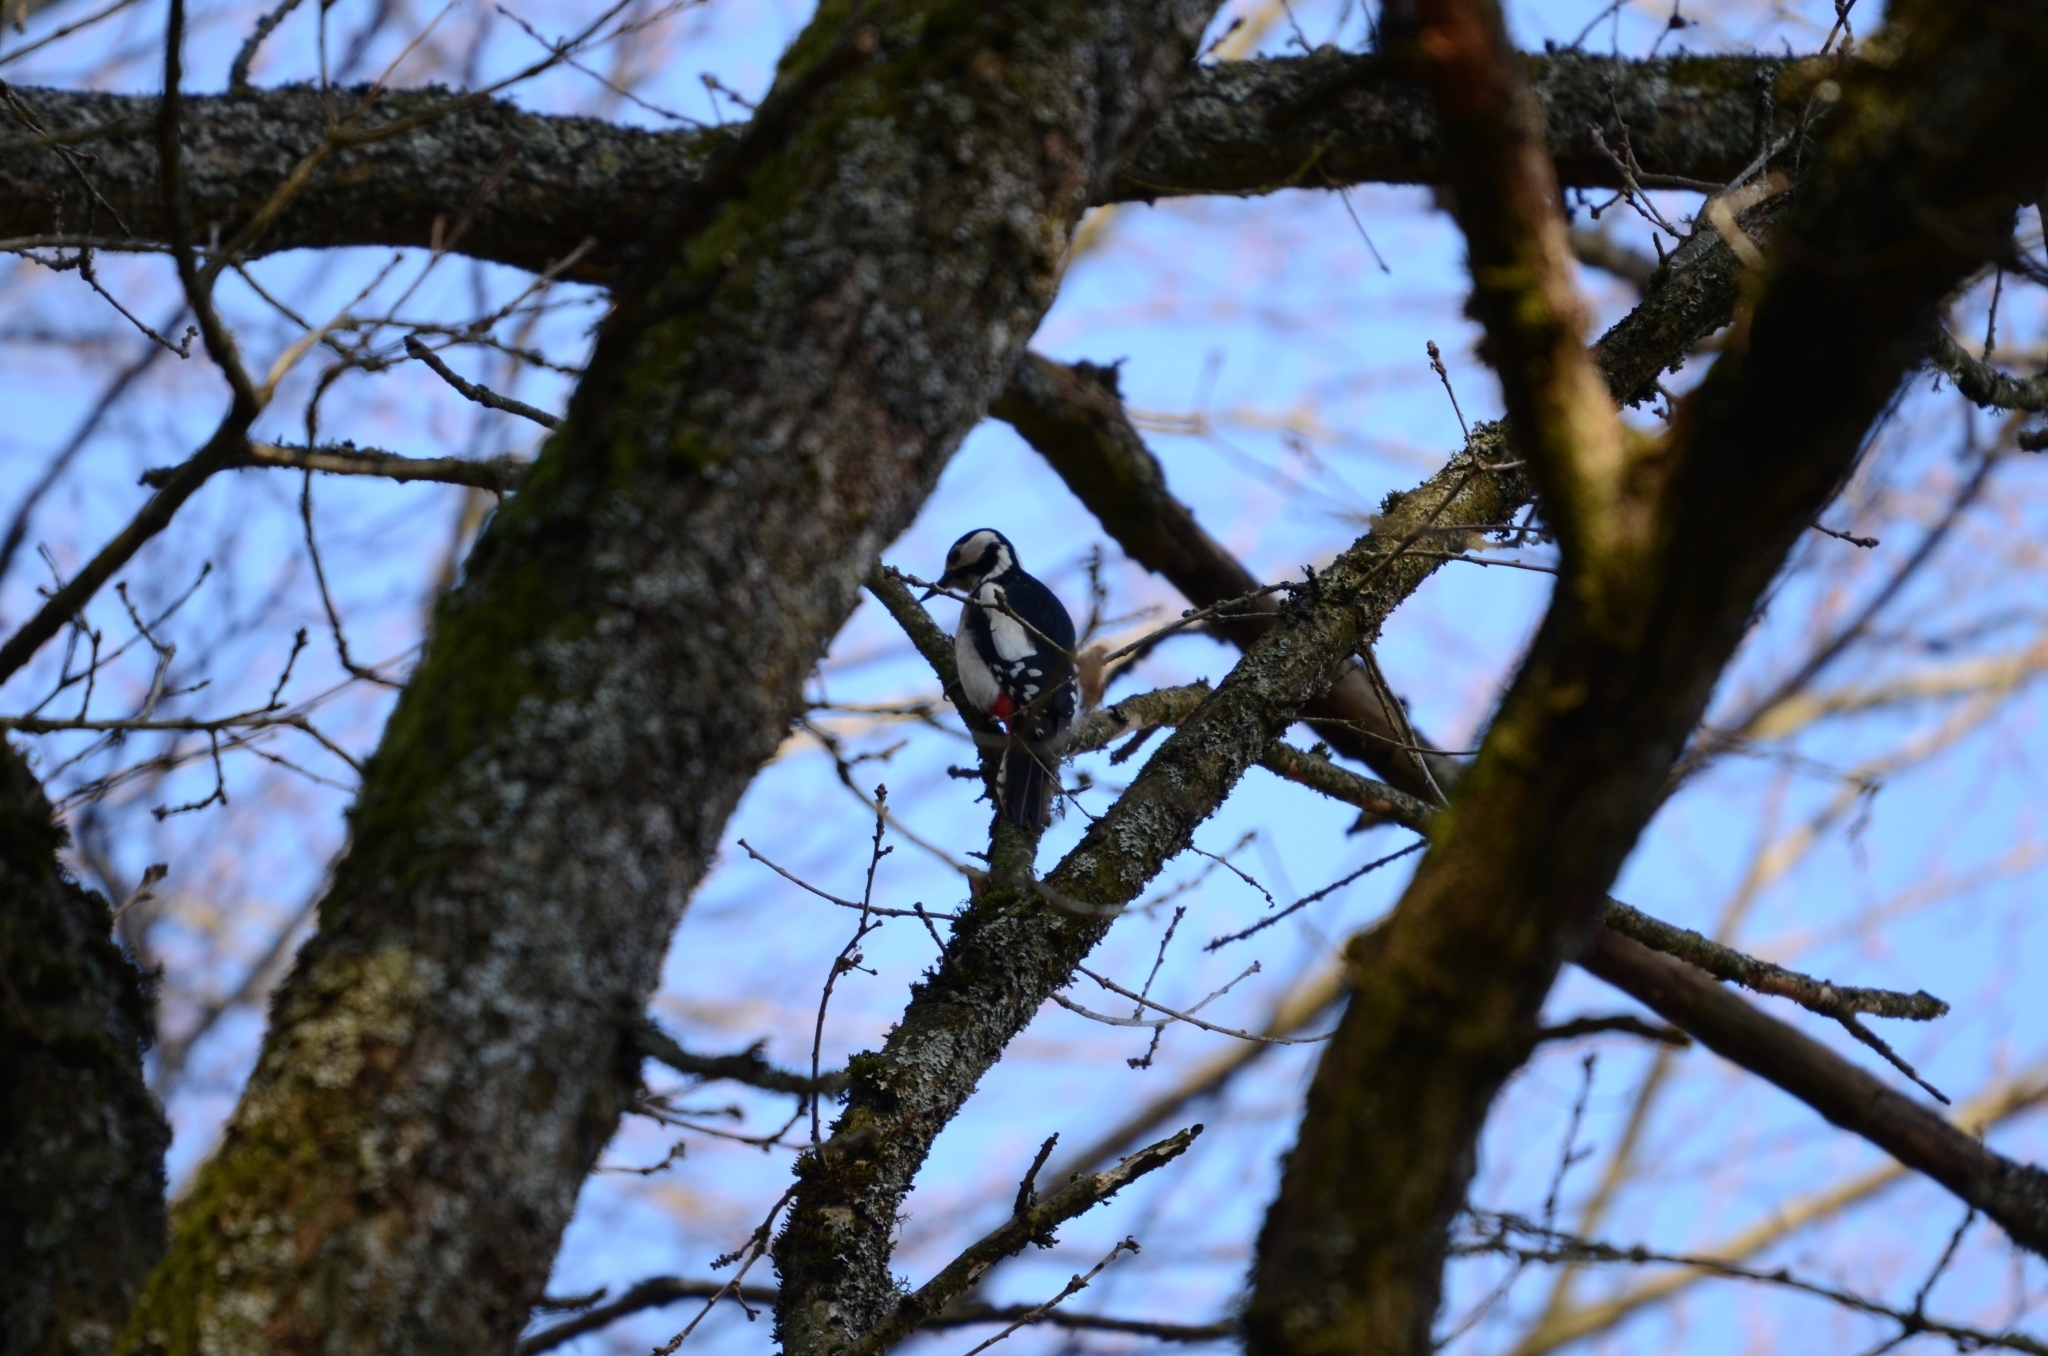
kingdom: Animalia
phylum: Chordata
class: Aves
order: Piciformes
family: Picidae
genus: Dendrocopos
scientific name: Dendrocopos major
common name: Great spotted woodpecker
